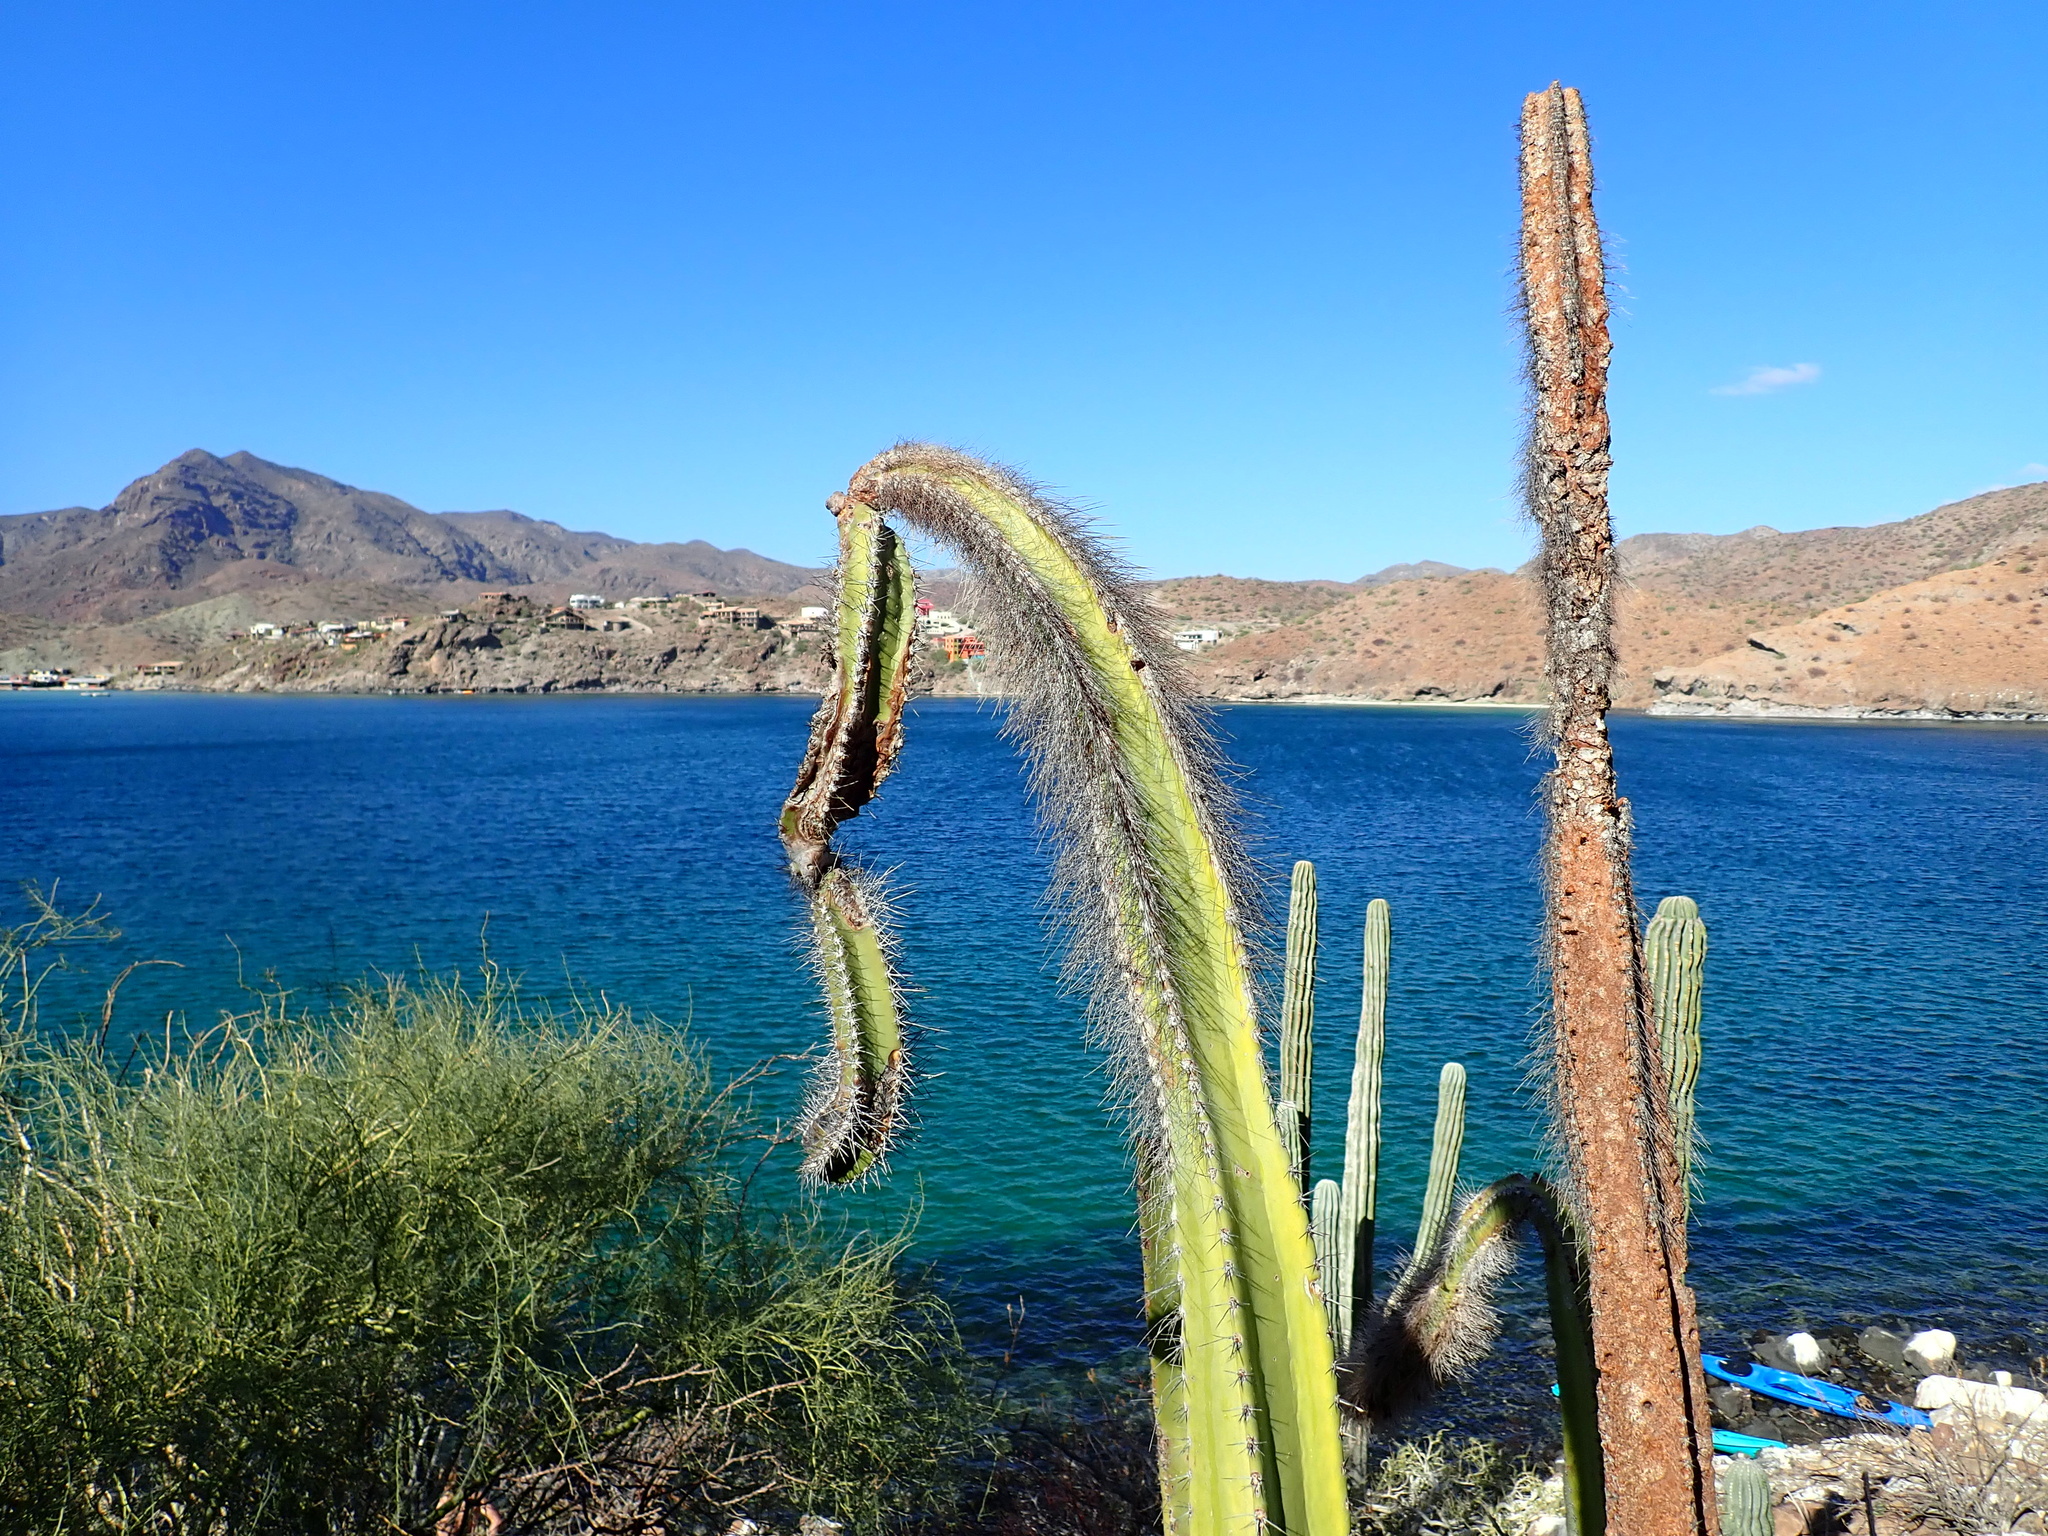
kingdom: Plantae
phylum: Tracheophyta
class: Magnoliopsida
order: Caryophyllales
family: Cactaceae
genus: Pachycereus
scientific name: Pachycereus schottii
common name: Senita cactus
